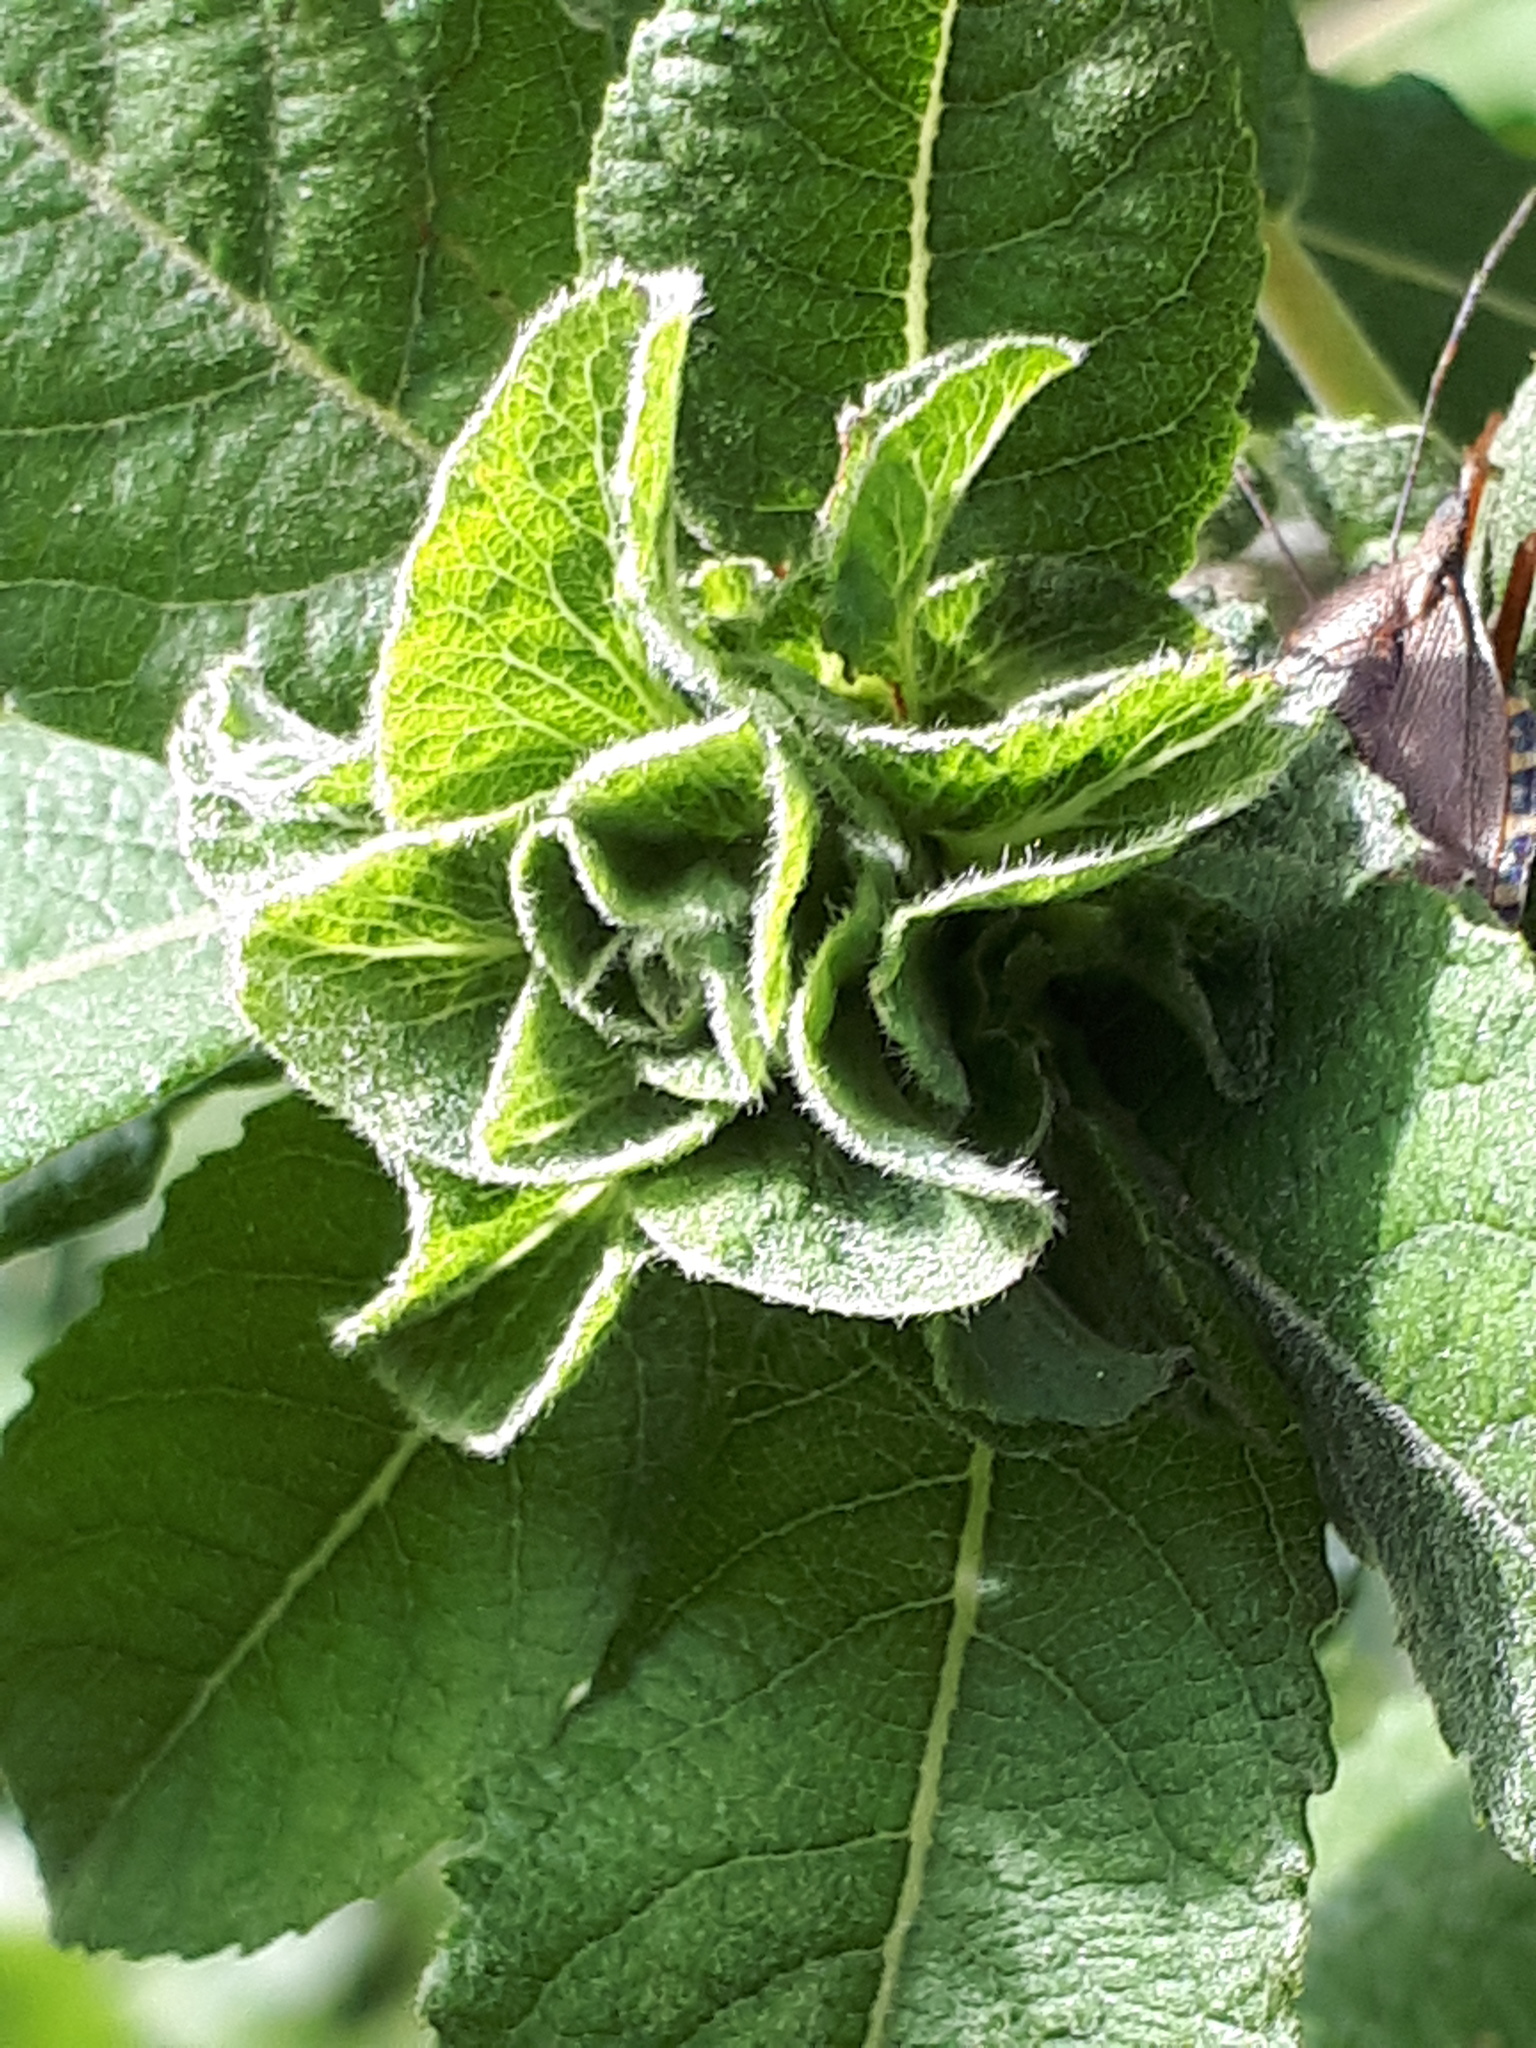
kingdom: Animalia
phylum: Arthropoda
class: Insecta
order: Diptera
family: Cecidomyiidae
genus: Rabdophaga
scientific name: Rabdophaga rosaria
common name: Willow rose gall midge
